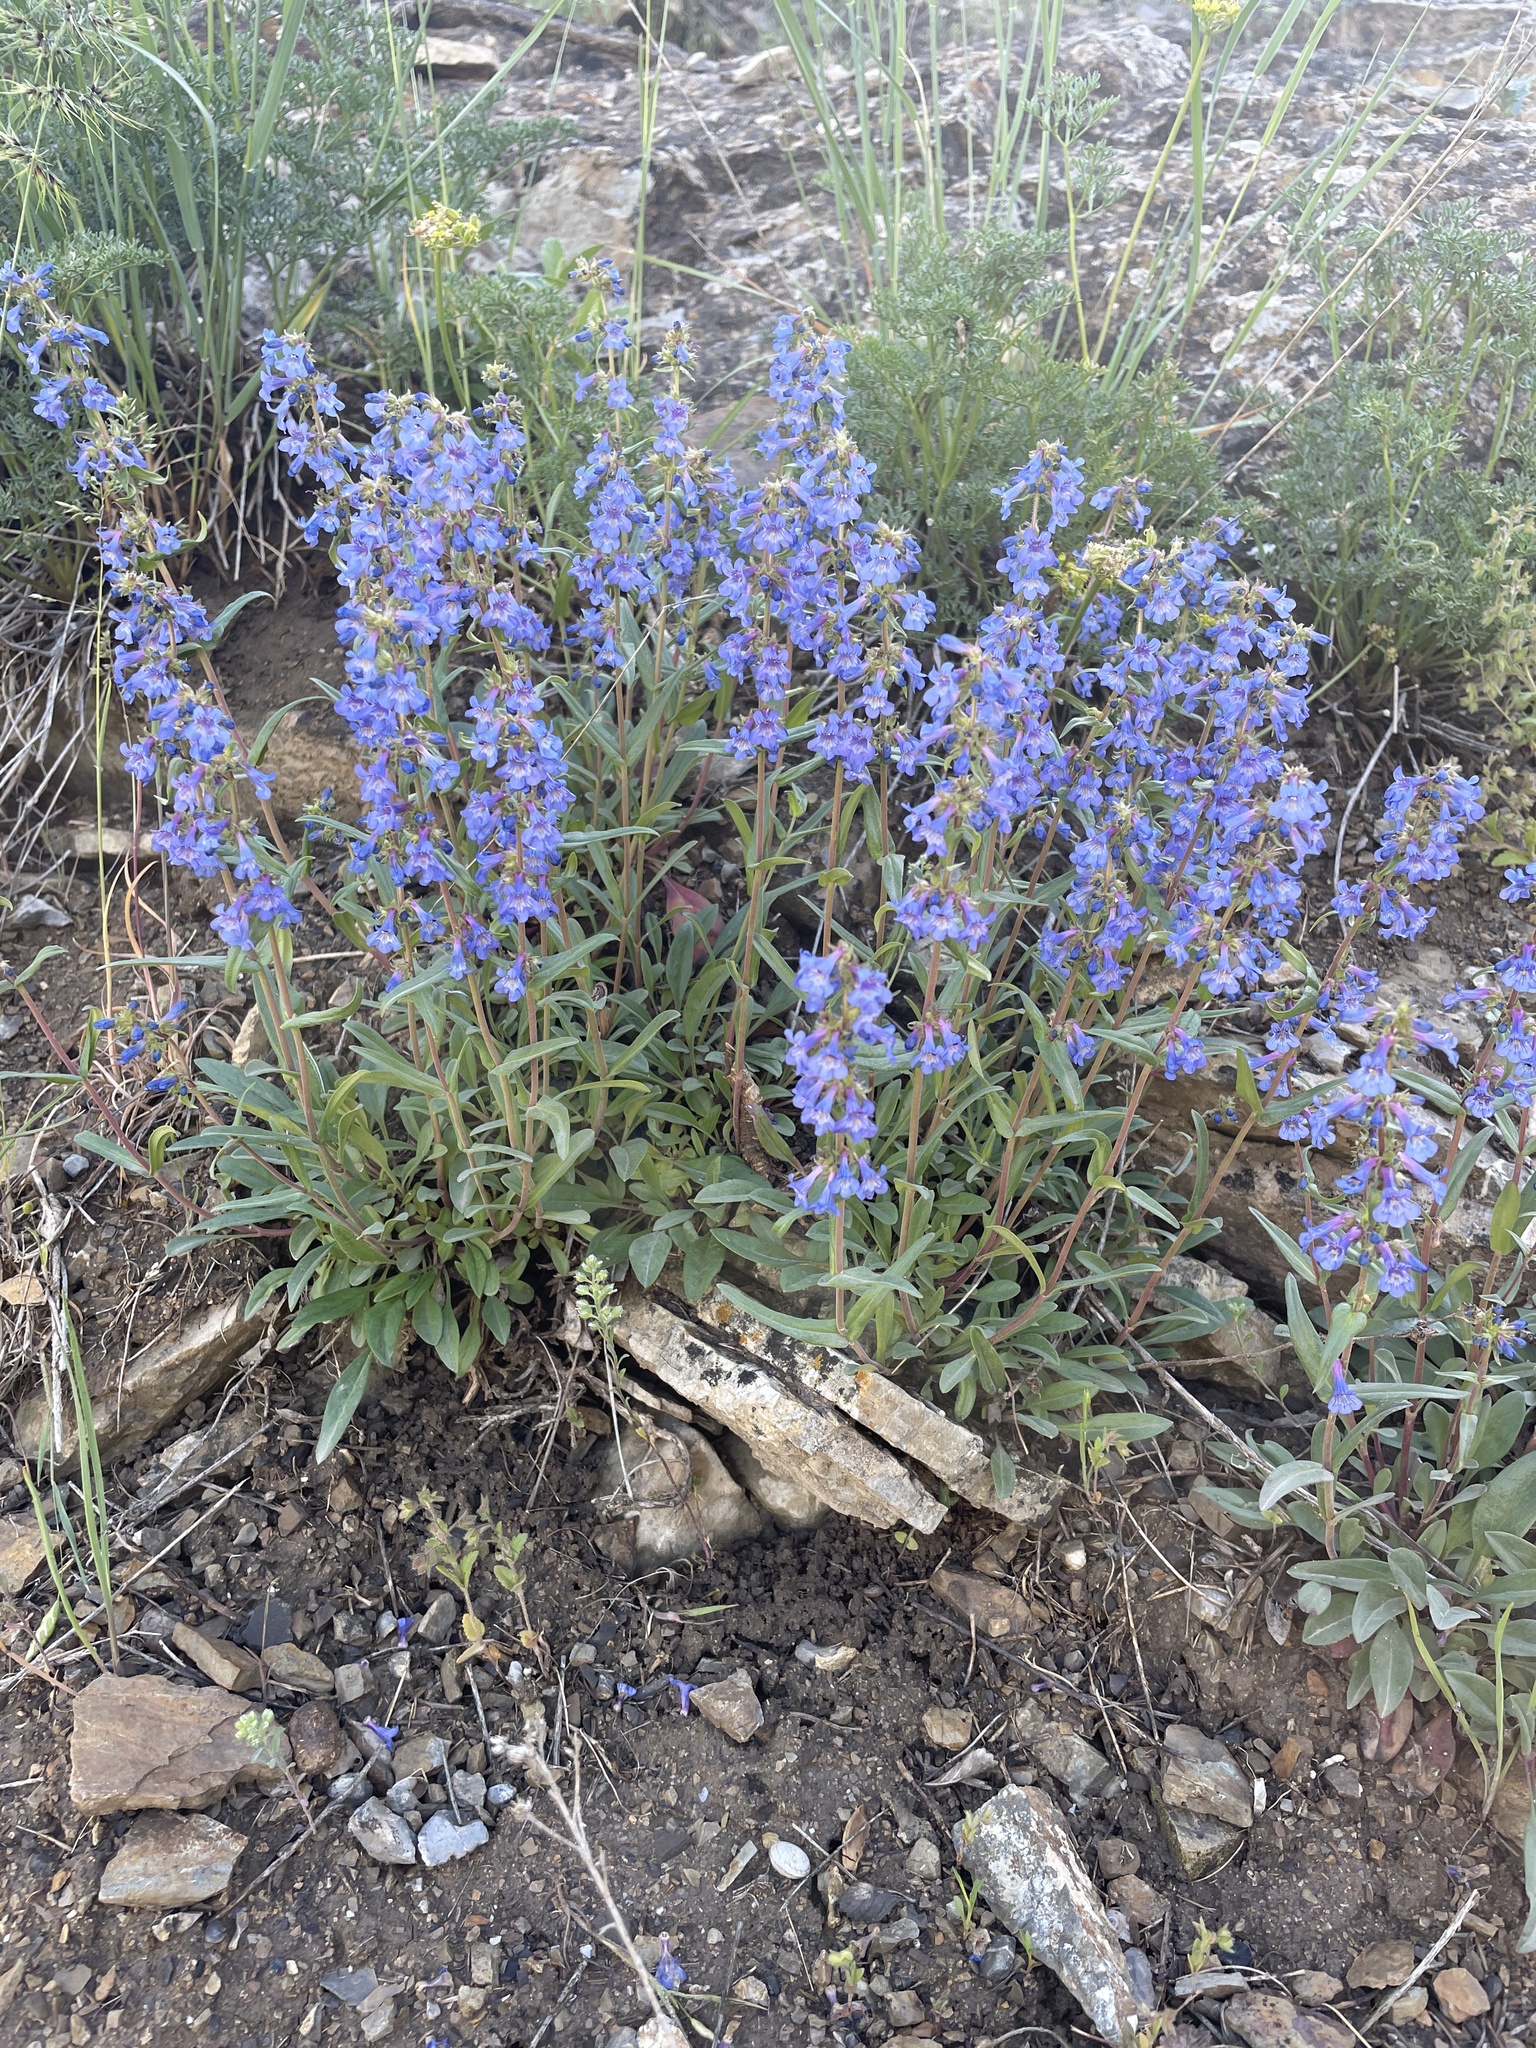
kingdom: Plantae
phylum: Tracheophyta
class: Magnoliopsida
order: Lamiales
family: Plantaginaceae
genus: Penstemon
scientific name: Penstemon humilis
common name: Low penstemon
